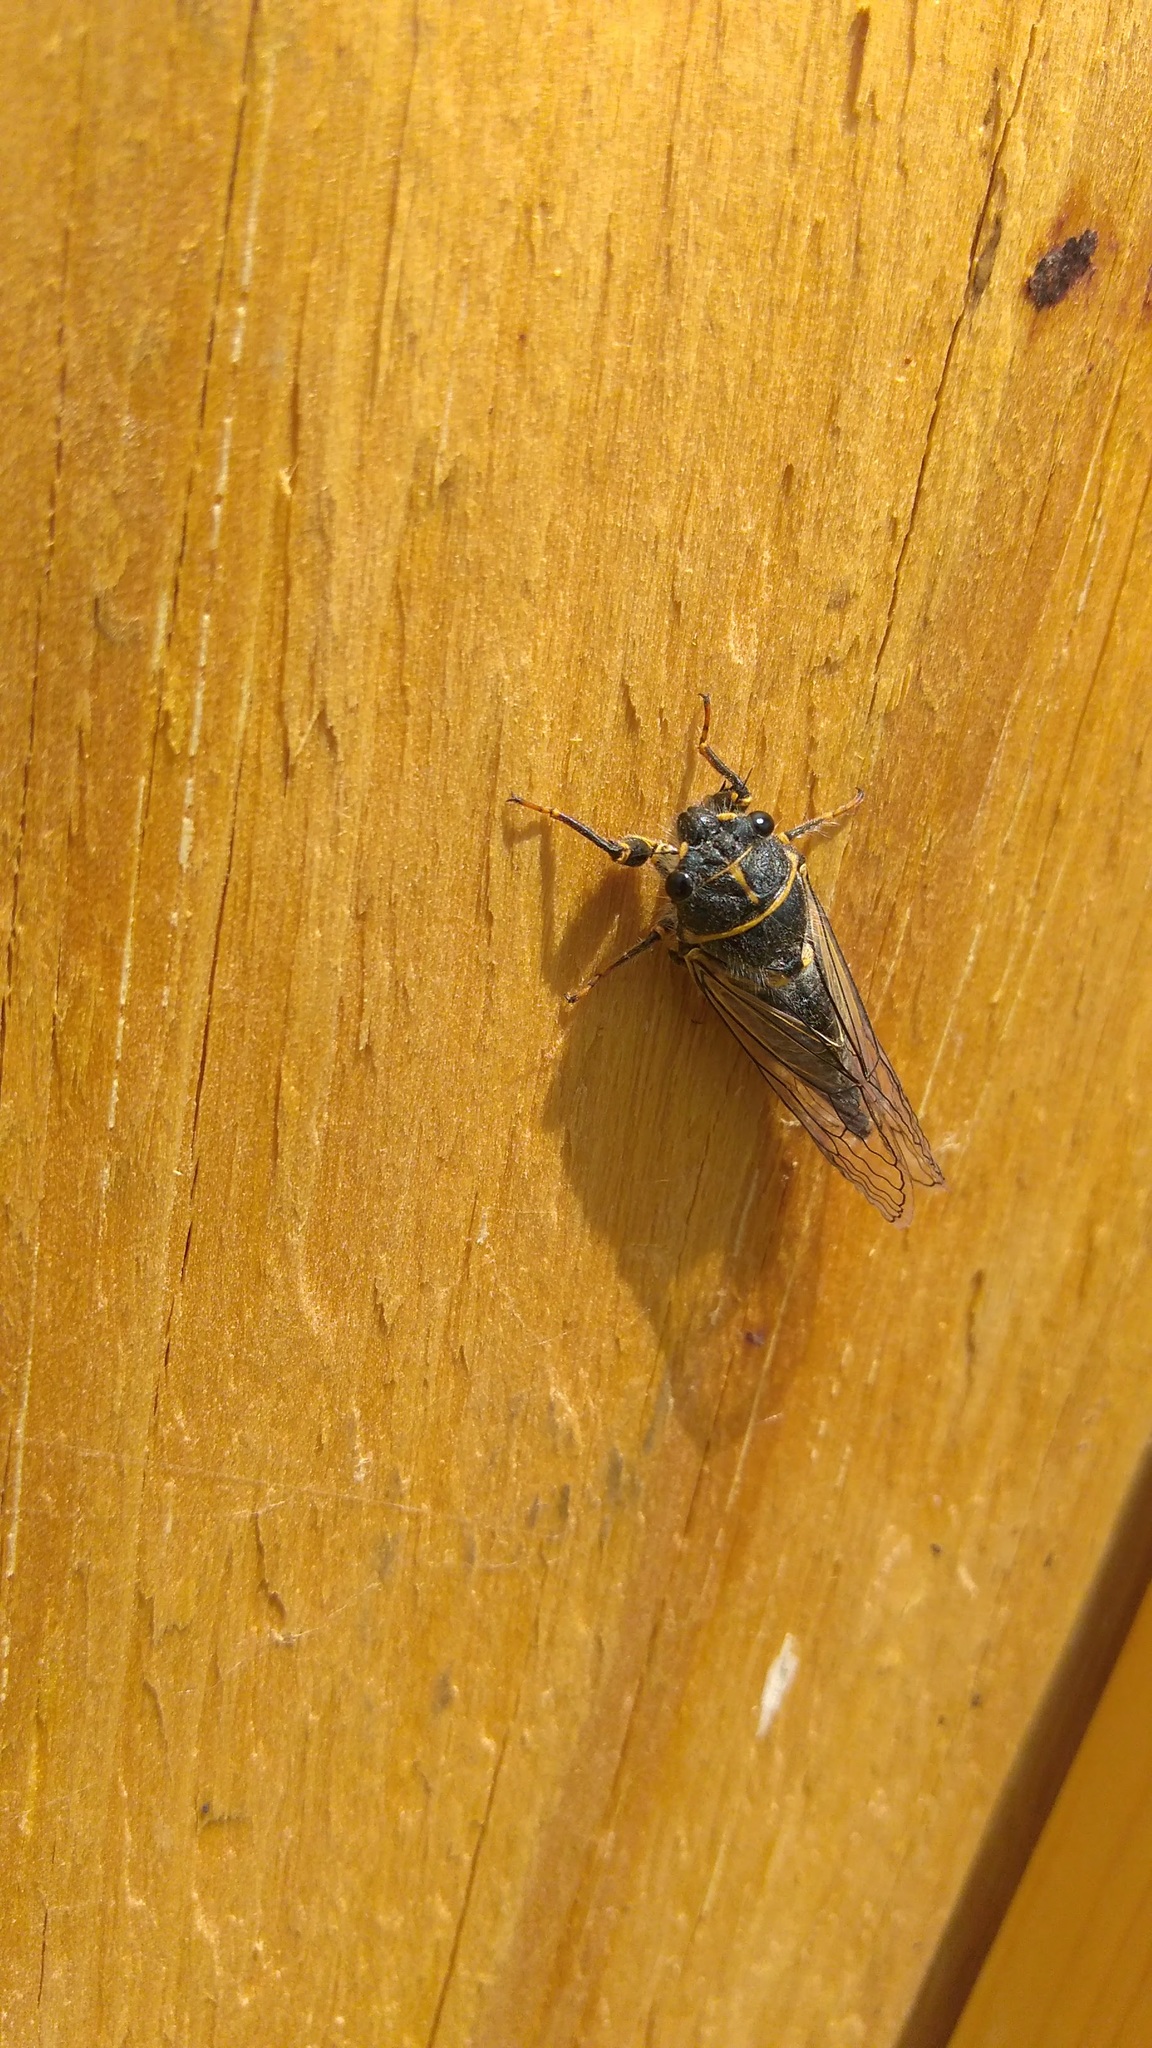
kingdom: Animalia
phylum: Arthropoda
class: Insecta
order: Hemiptera
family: Cicadidae
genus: Platypedia
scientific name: Platypedia putnami
